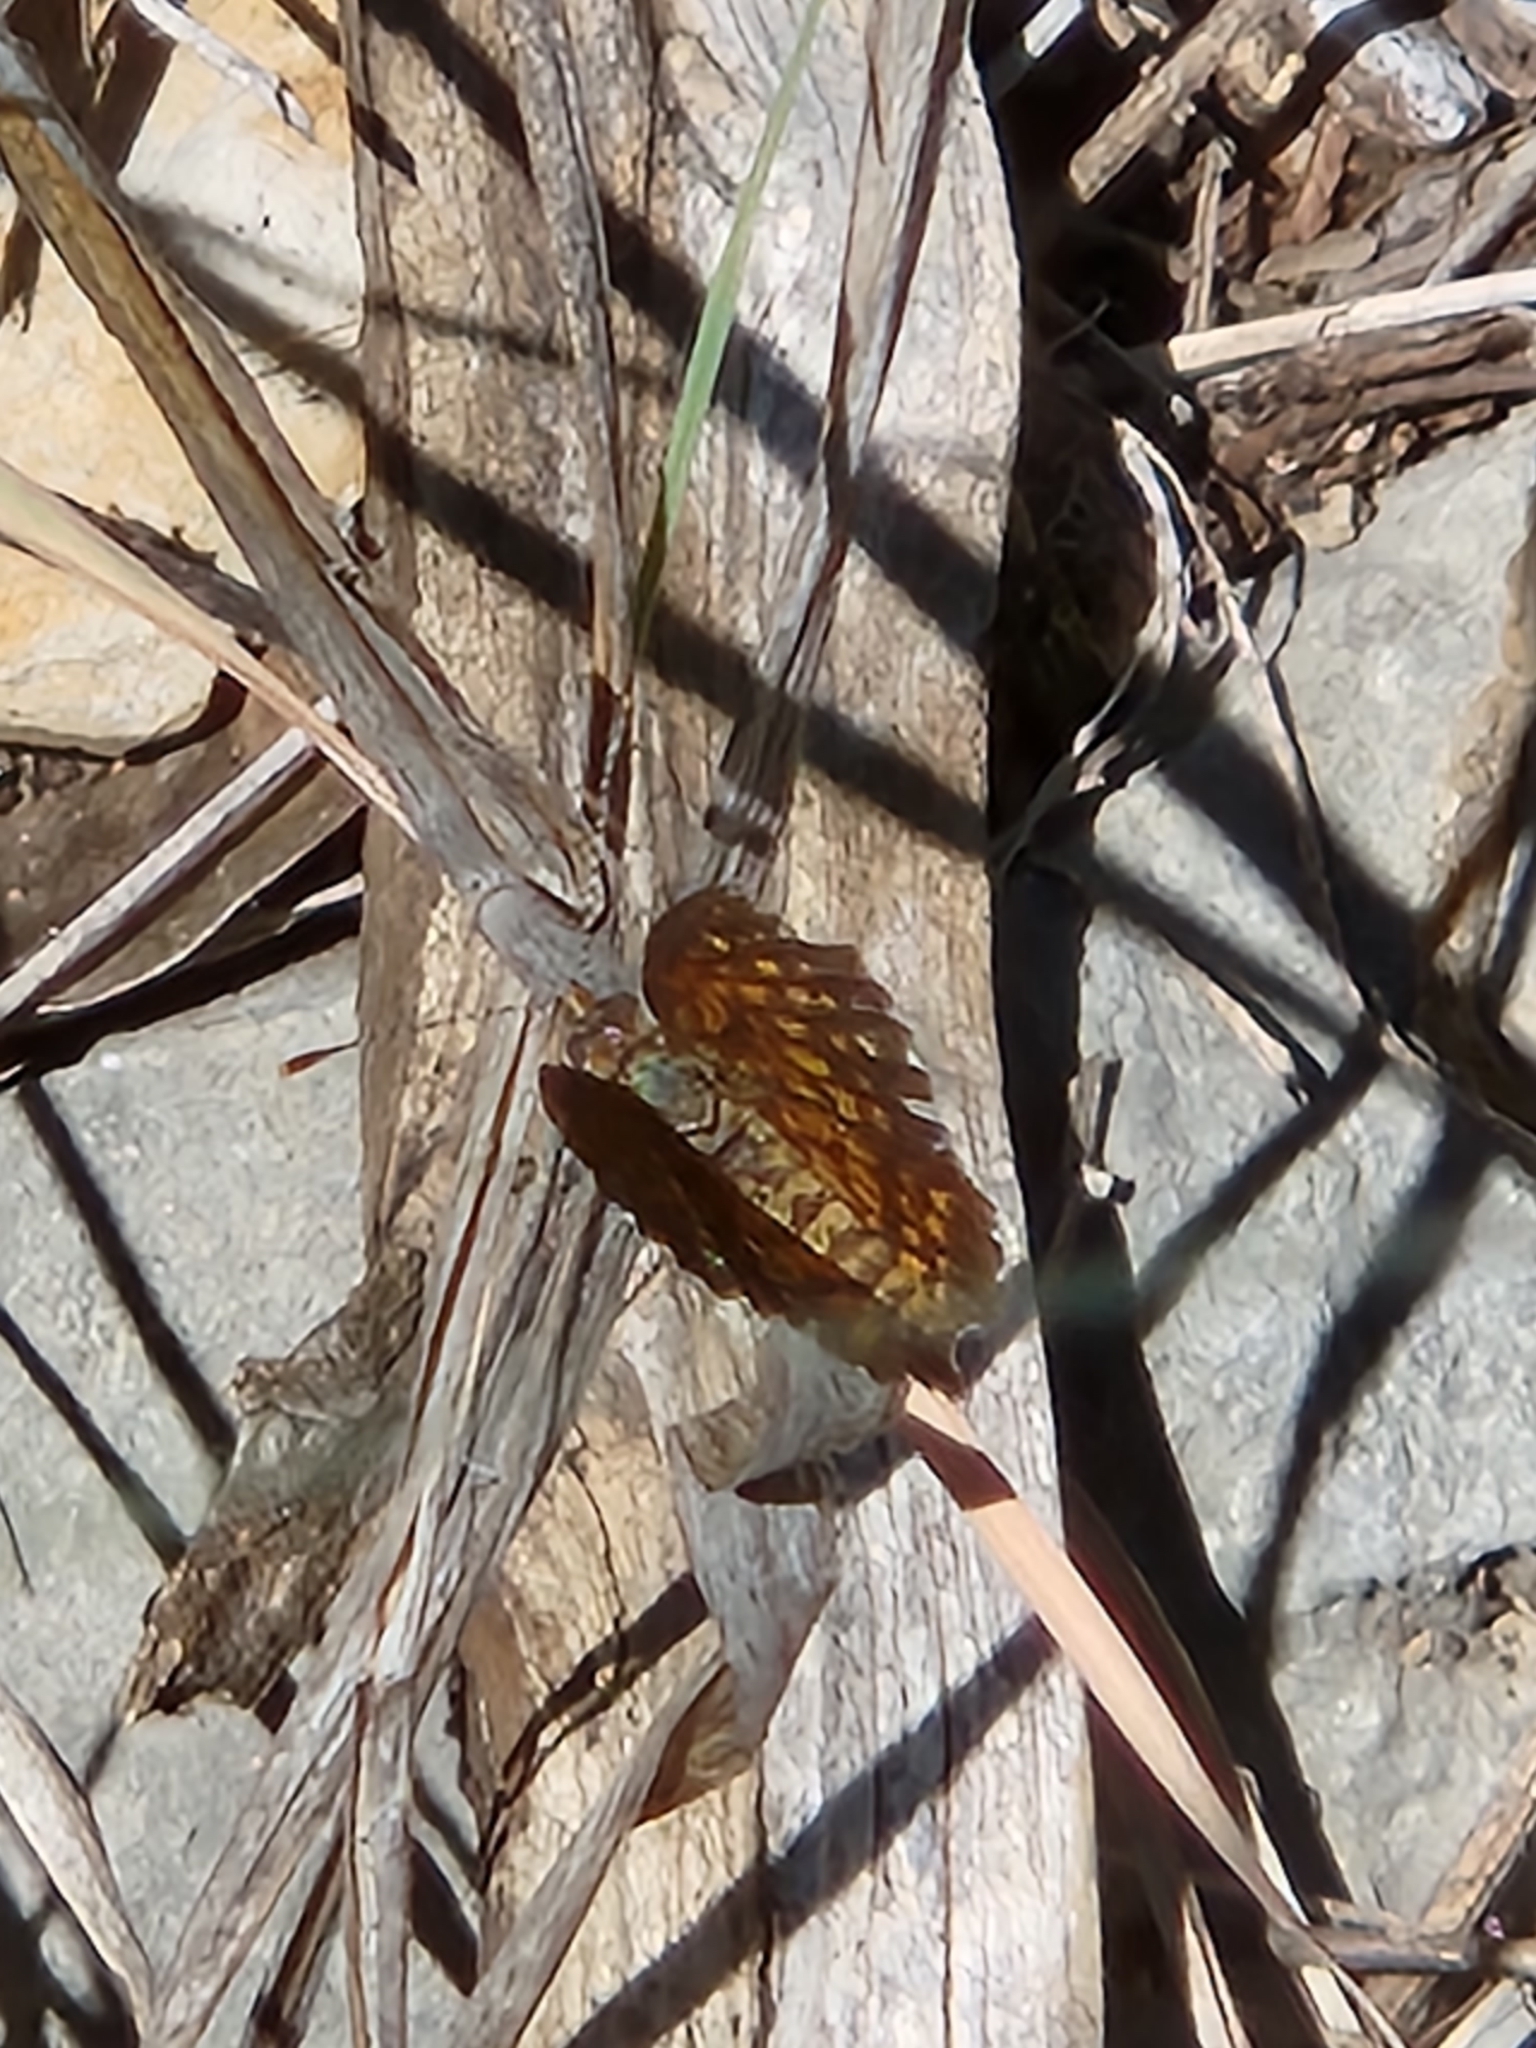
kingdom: Animalia
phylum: Arthropoda
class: Insecta
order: Lepidoptera
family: Nymphalidae
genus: Texola
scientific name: Texola elada
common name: Elada checkerspot
